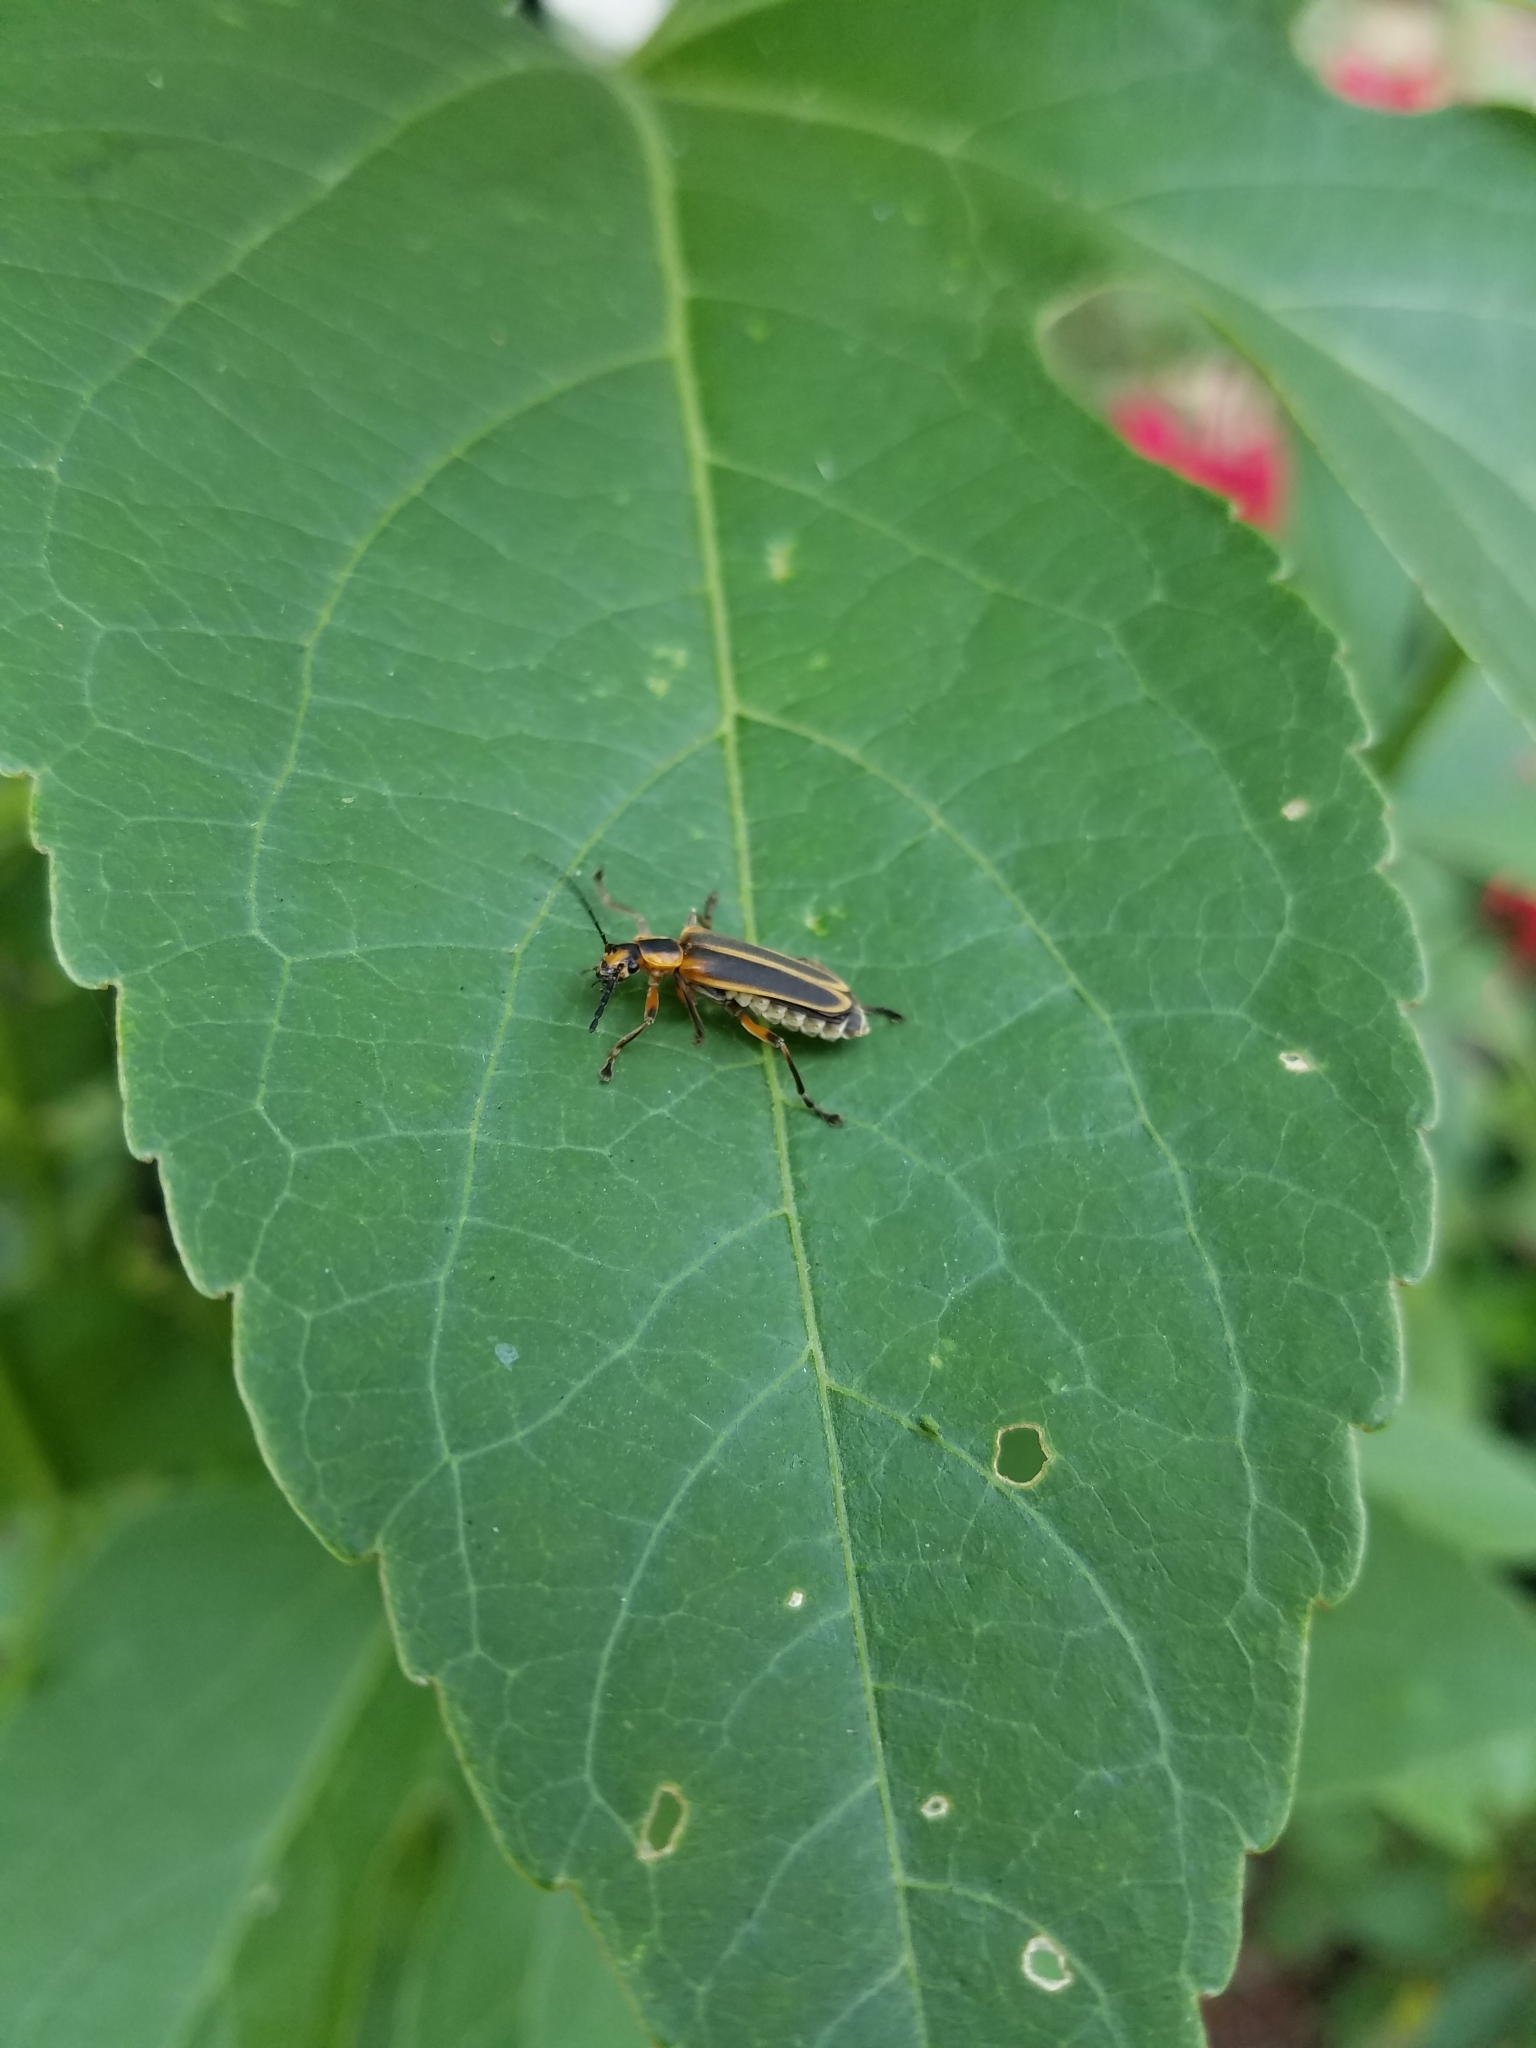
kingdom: Animalia
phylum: Arthropoda
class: Insecta
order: Coleoptera
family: Cantharidae
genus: Chauliognathus
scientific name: Chauliognathus marginatus
